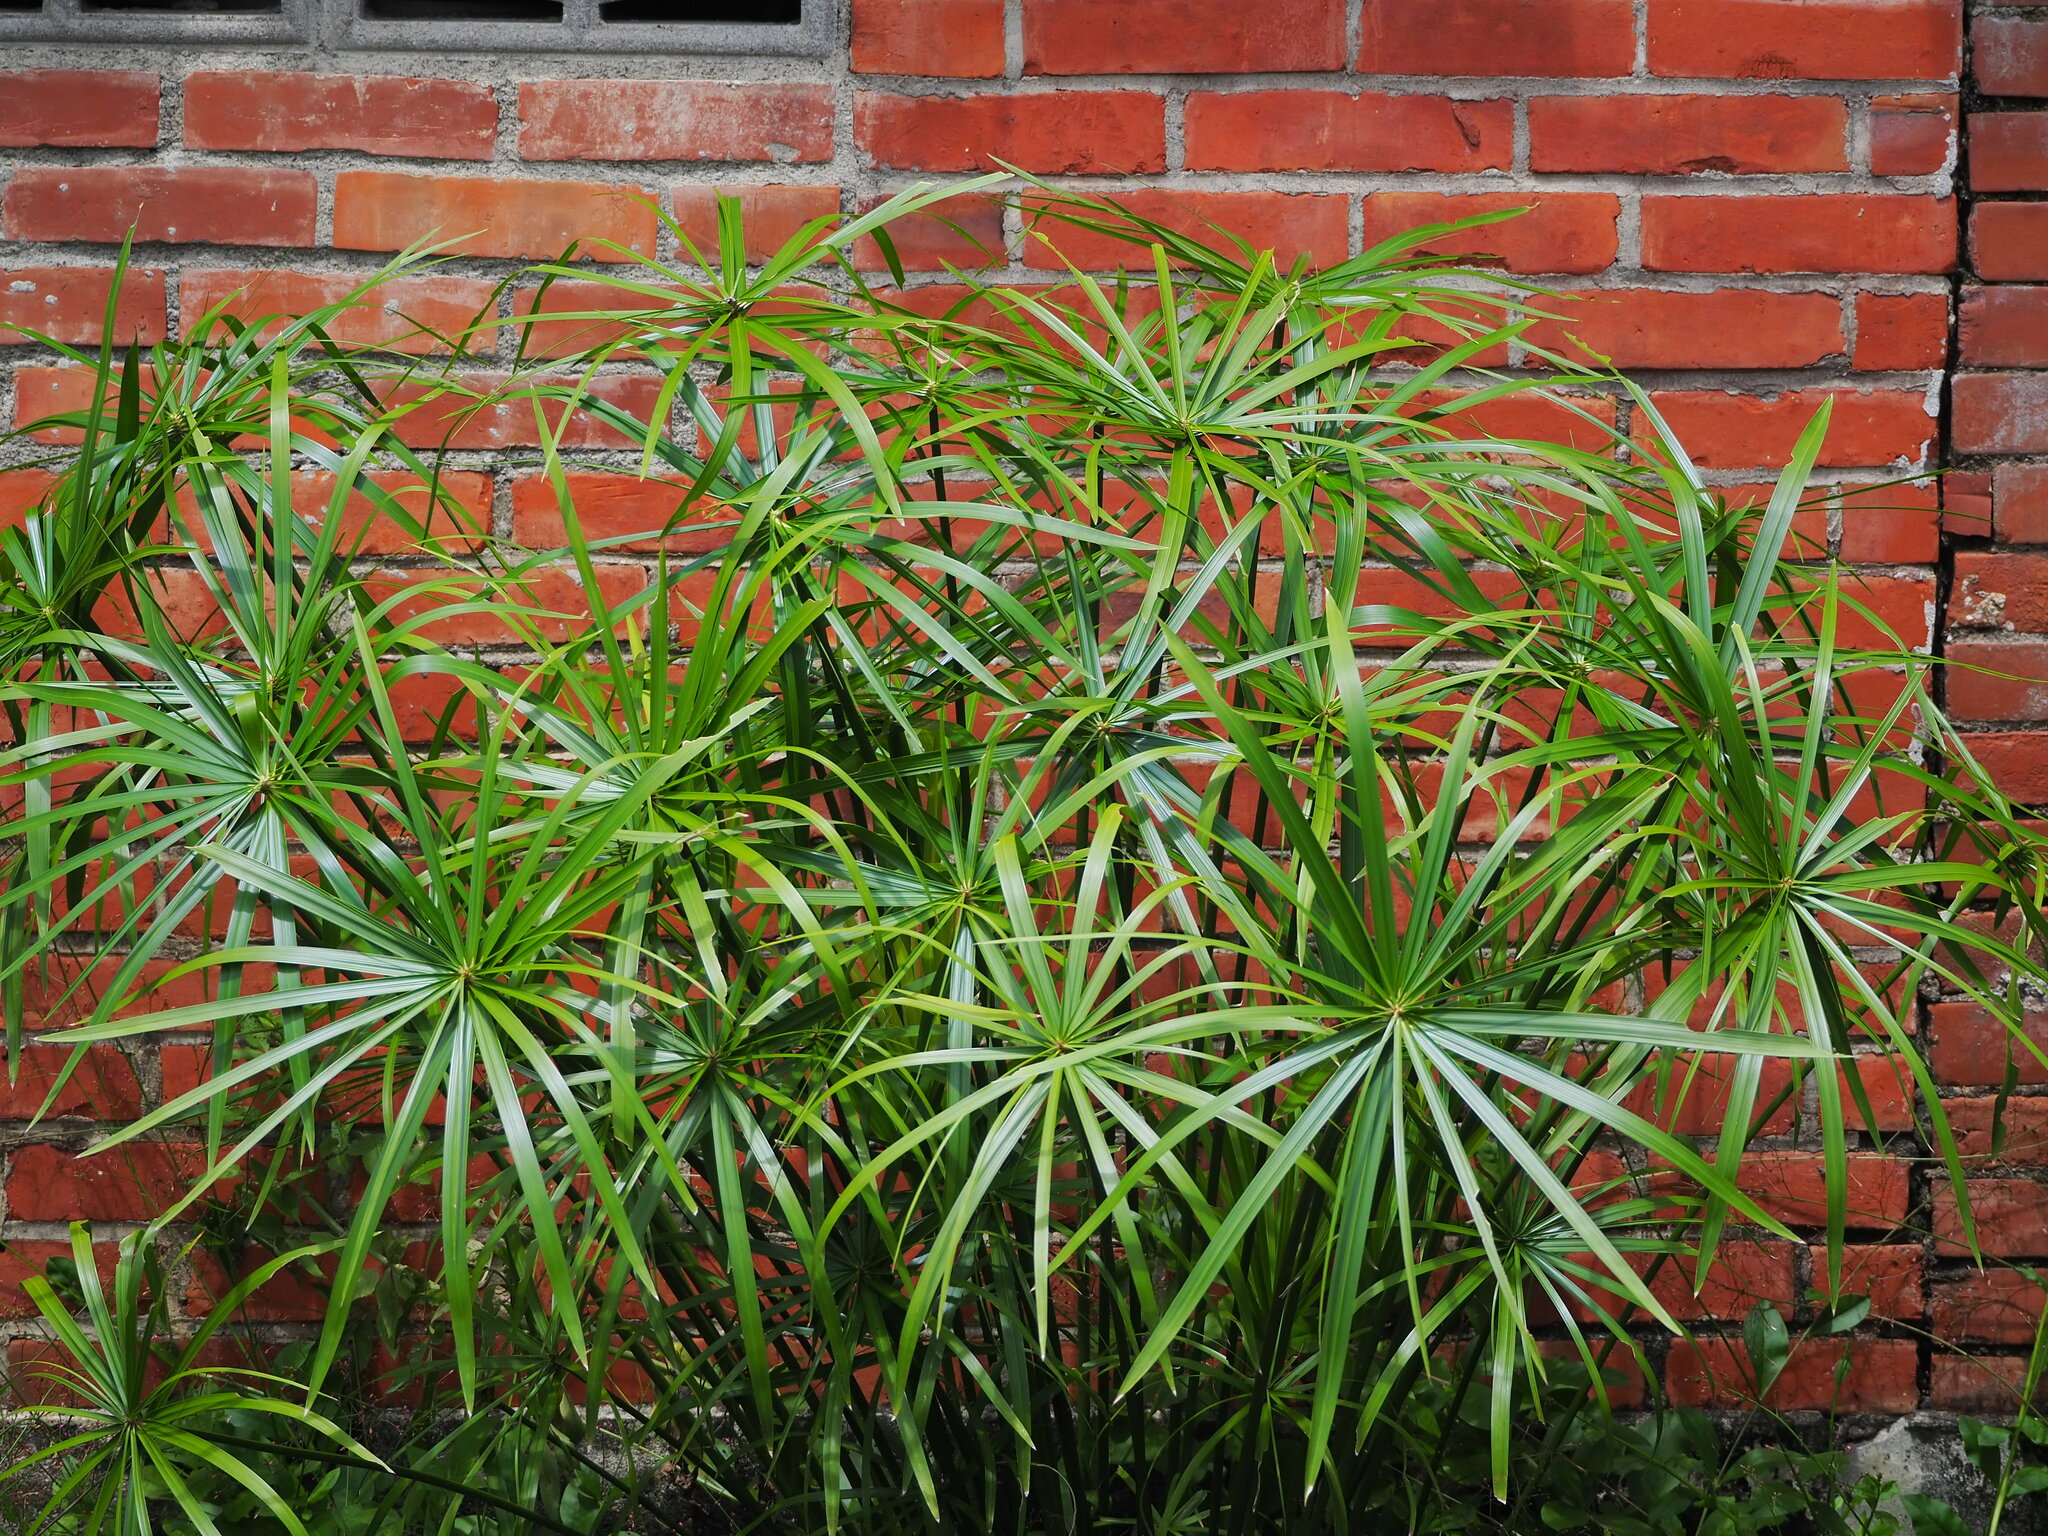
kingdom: Plantae
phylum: Tracheophyta
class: Liliopsida
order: Poales
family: Cyperaceae
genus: Cyperus
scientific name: Cyperus alternifolius
